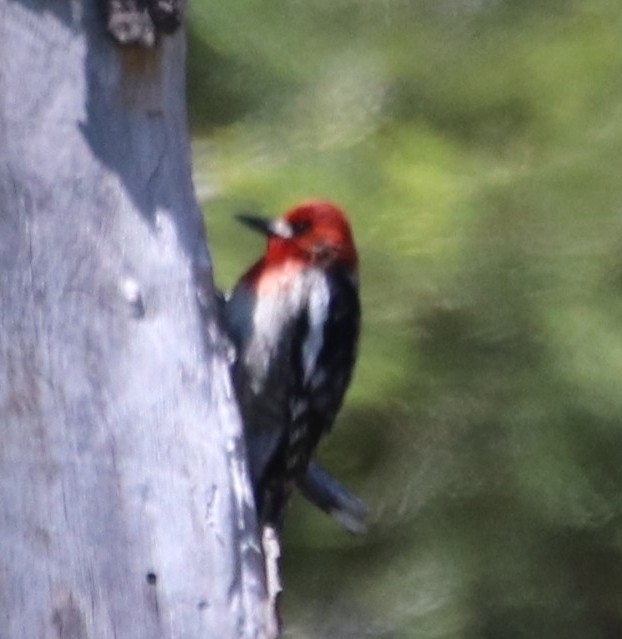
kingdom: Animalia
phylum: Chordata
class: Aves
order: Piciformes
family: Picidae
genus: Sphyrapicus
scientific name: Sphyrapicus ruber
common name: Red-breasted sapsucker
